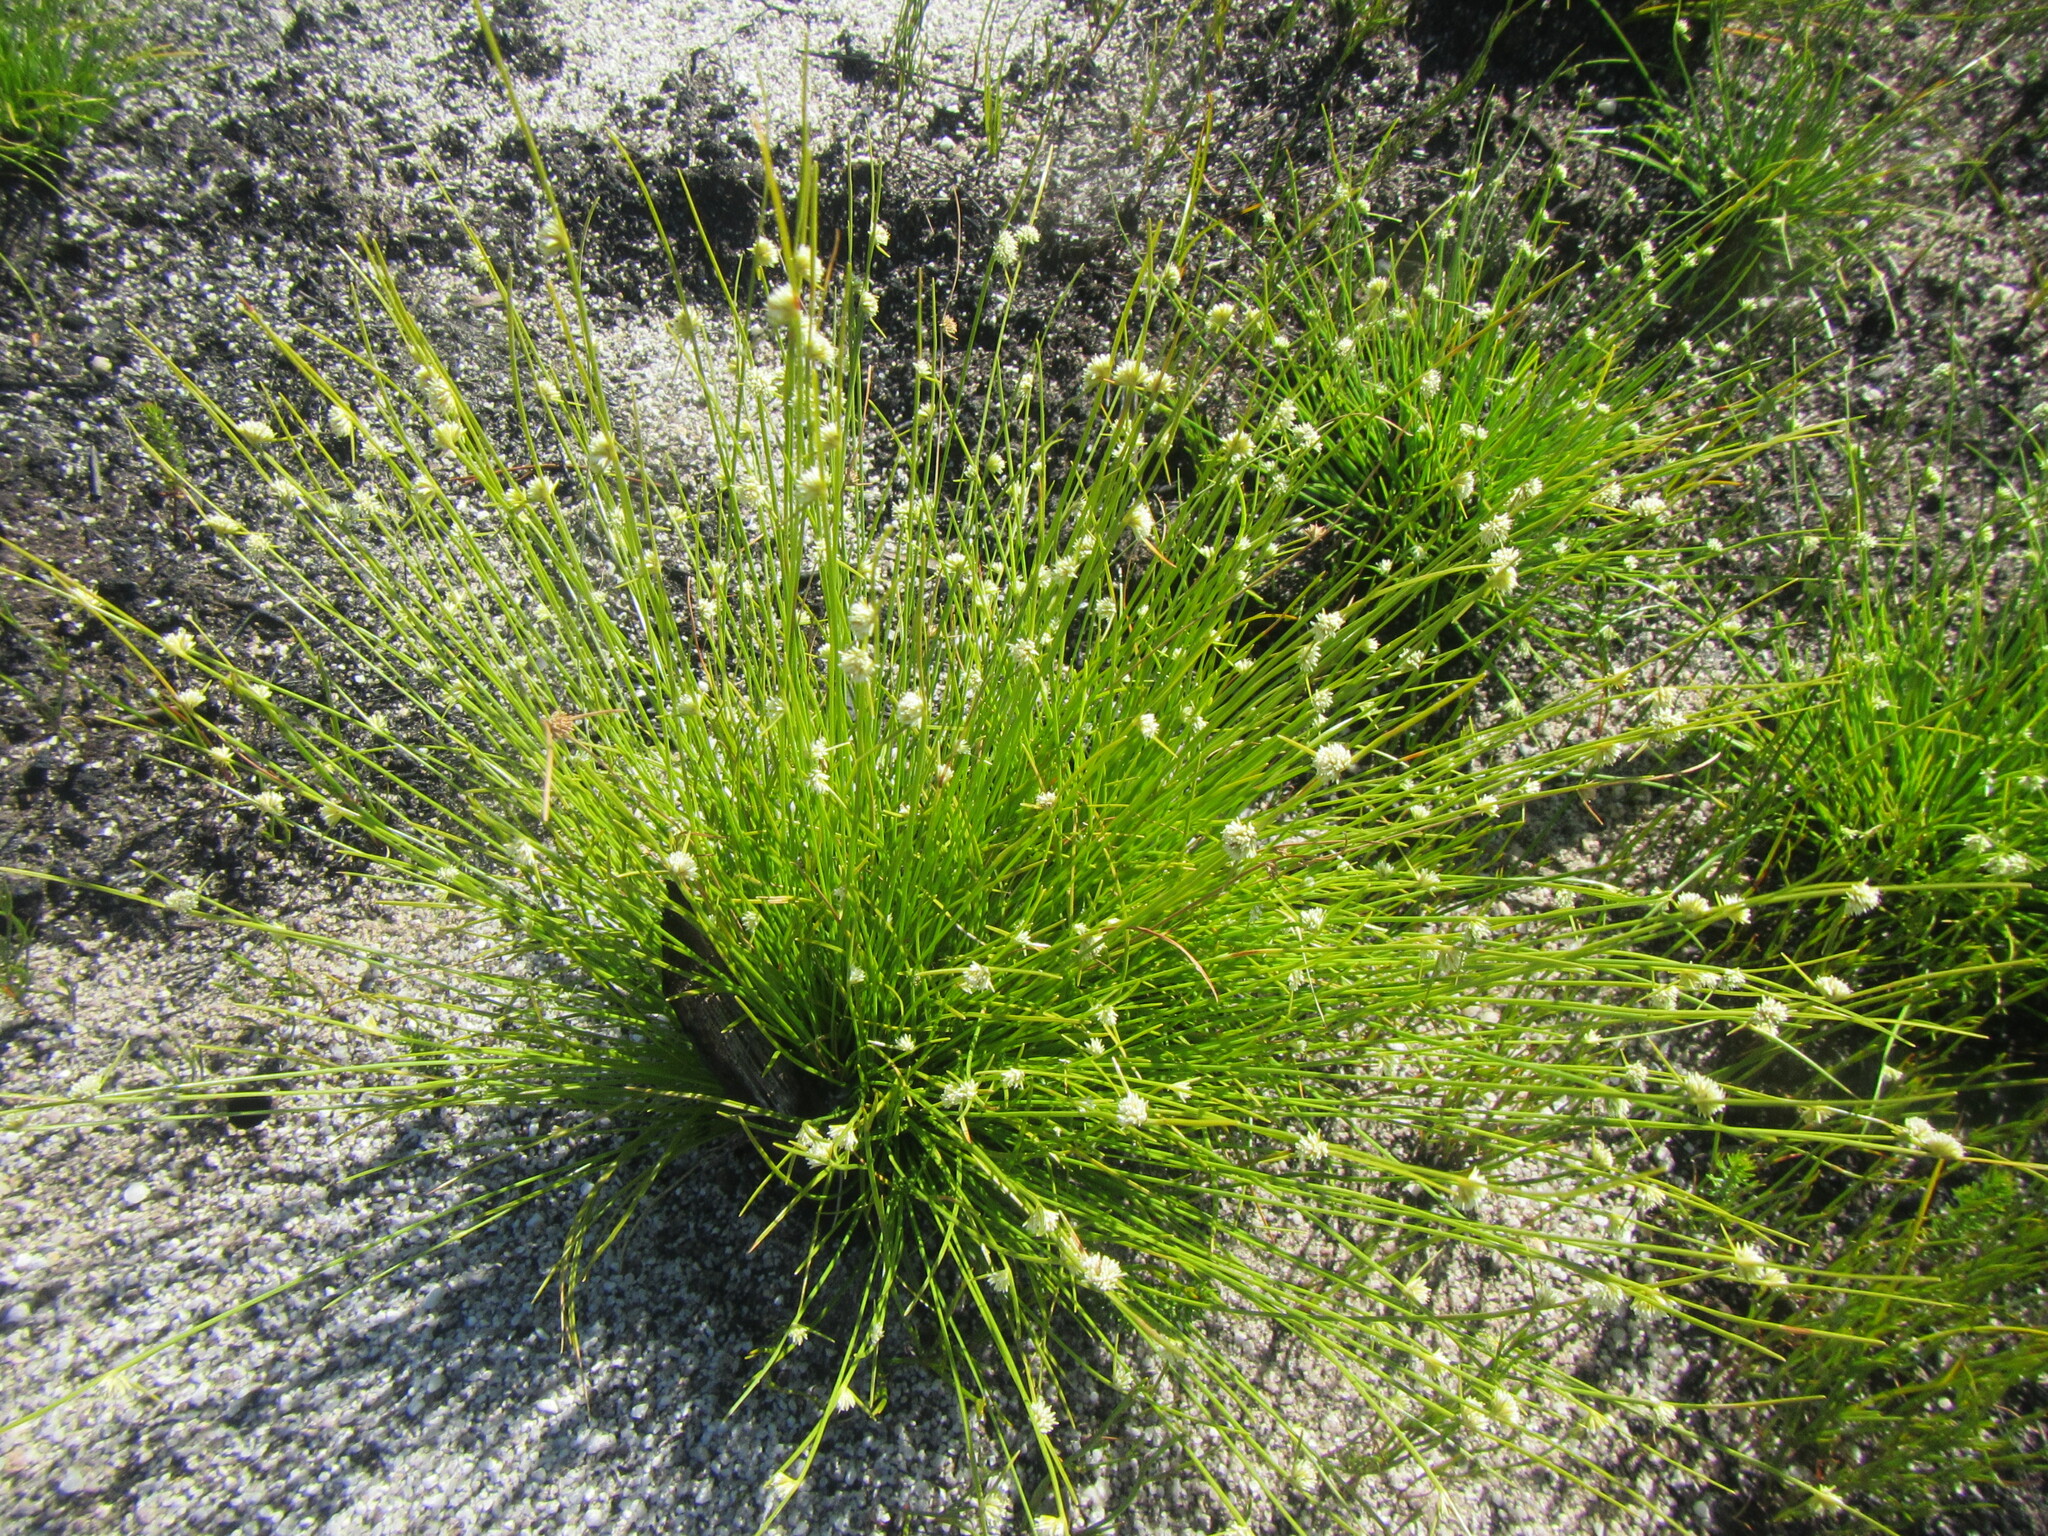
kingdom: Plantae
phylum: Tracheophyta
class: Liliopsida
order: Poales
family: Cyperaceae
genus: Ficinia
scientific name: Ficinia minutiflora
